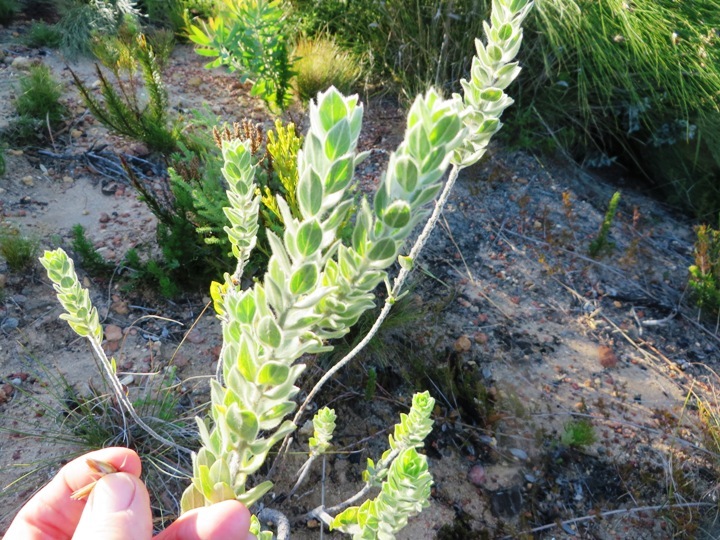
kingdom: Plantae
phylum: Tracheophyta
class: Magnoliopsida
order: Fabales
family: Fabaceae
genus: Xiphotheca
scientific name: Xiphotheca tecta
